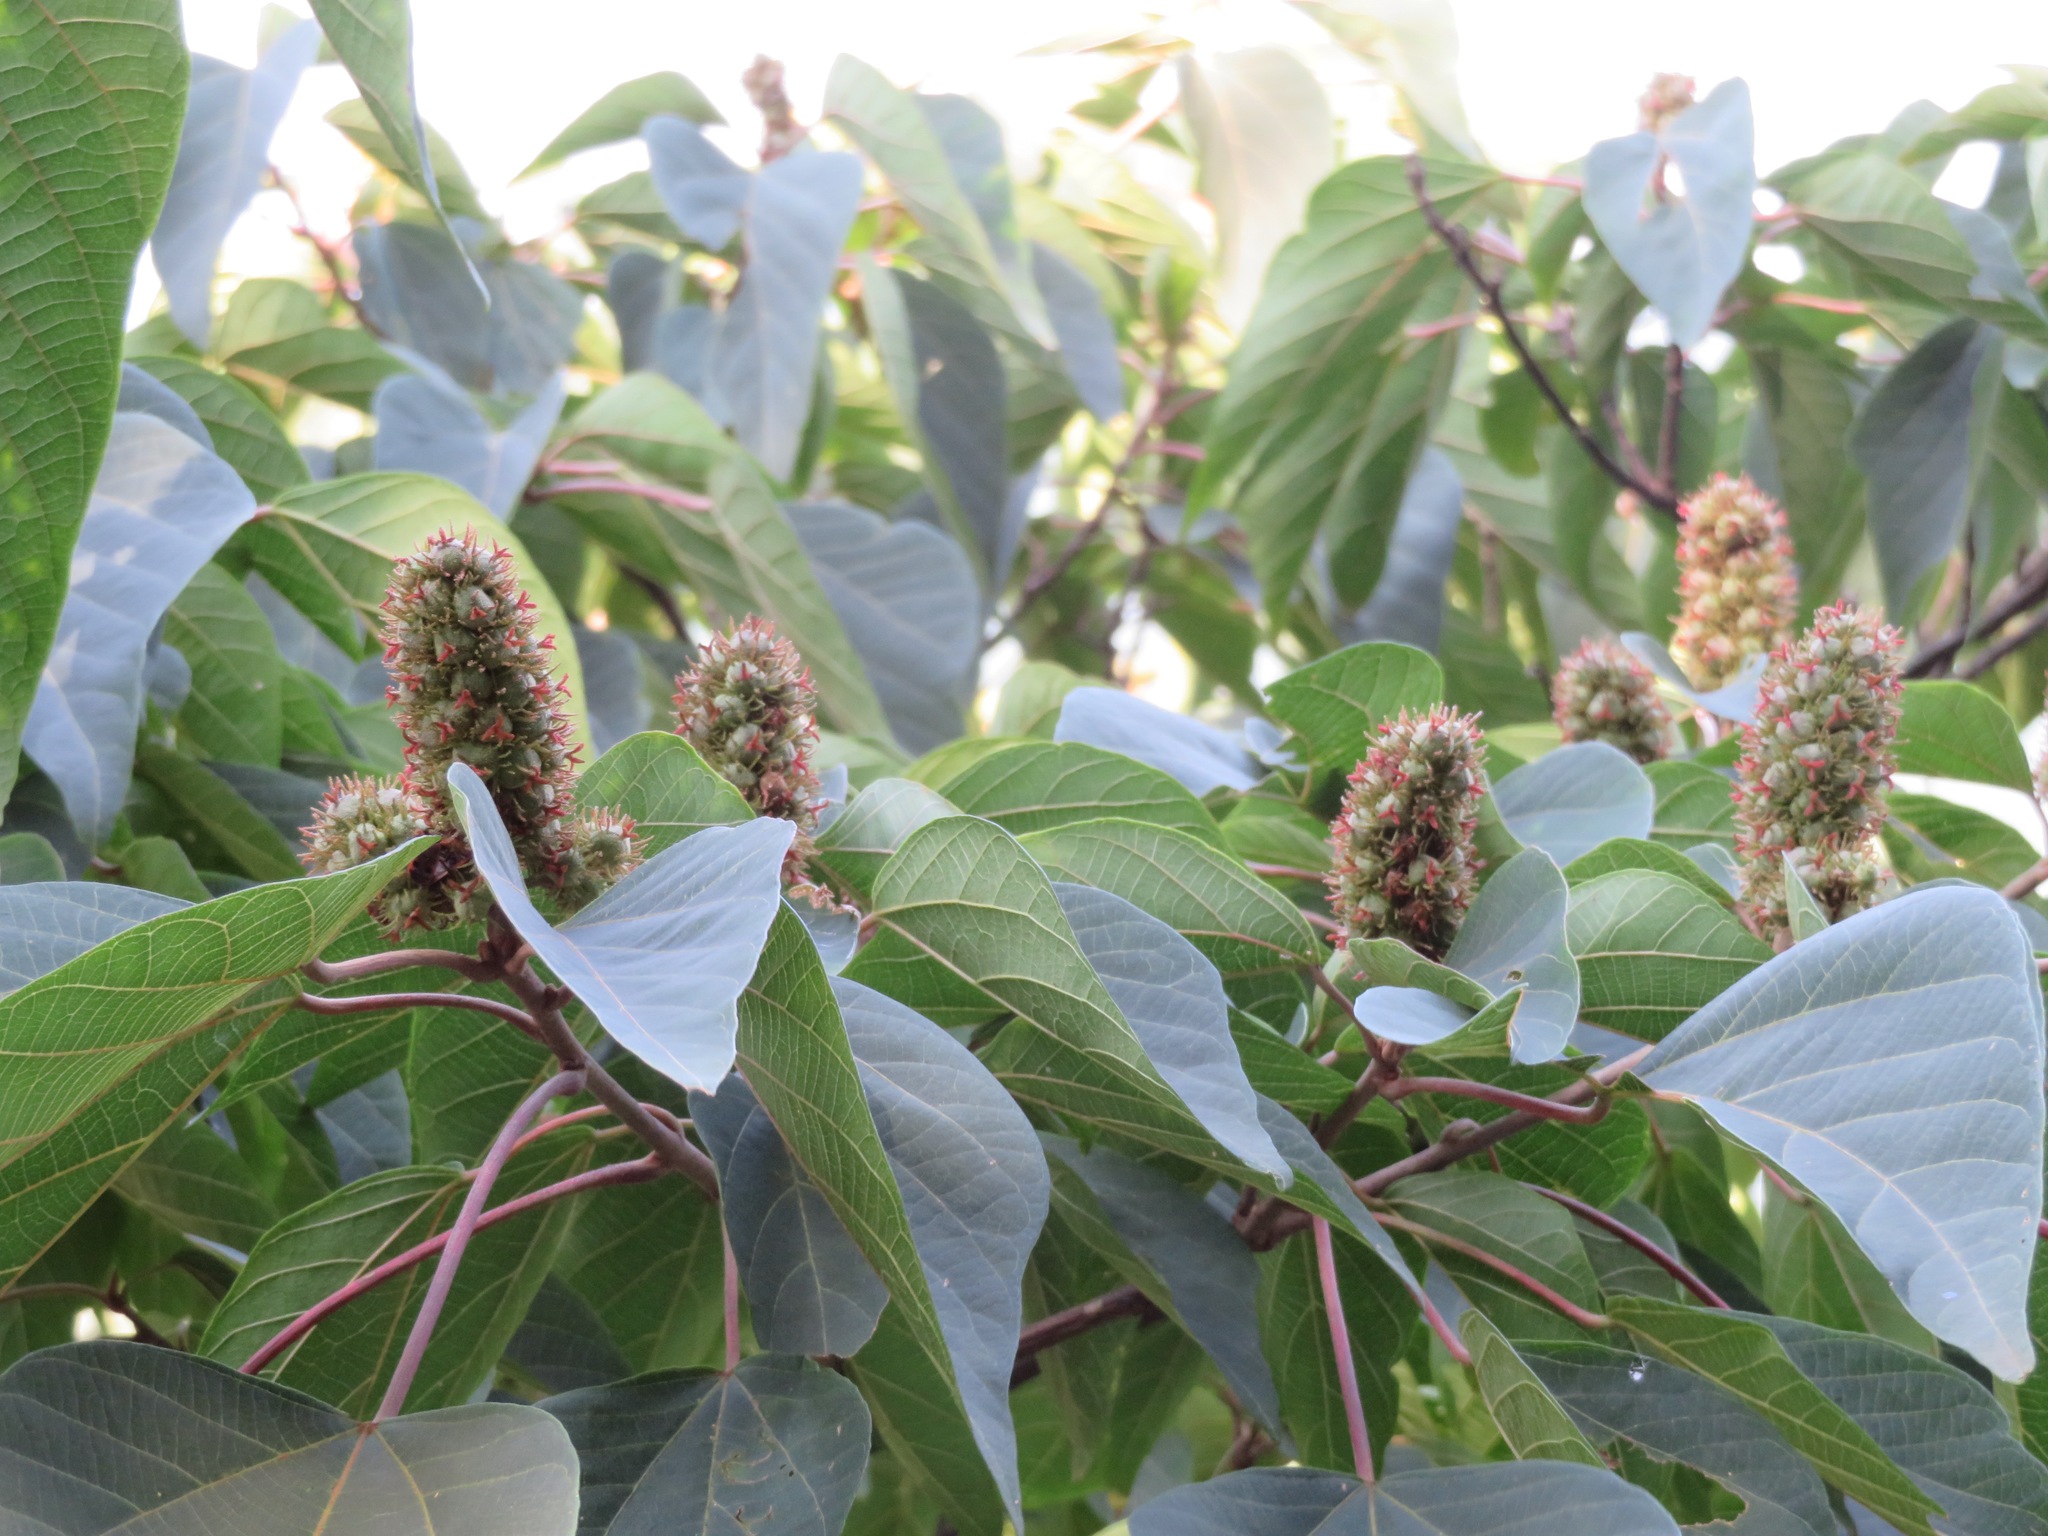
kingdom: Plantae
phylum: Tracheophyta
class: Magnoliopsida
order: Malpighiales
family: Euphorbiaceae
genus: Mallotus
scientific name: Mallotus japonicus
